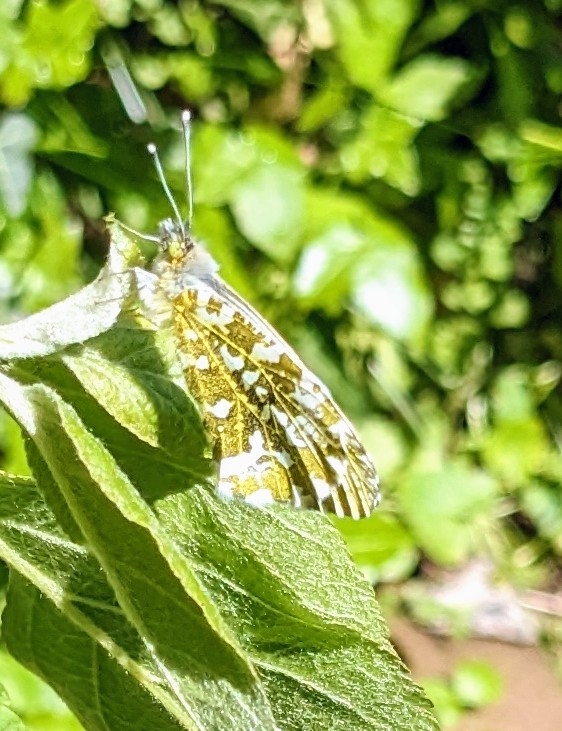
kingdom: Animalia
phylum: Arthropoda
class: Insecta
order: Lepidoptera
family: Pieridae
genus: Anthocharis
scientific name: Anthocharis cardamines
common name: Orange-tip
